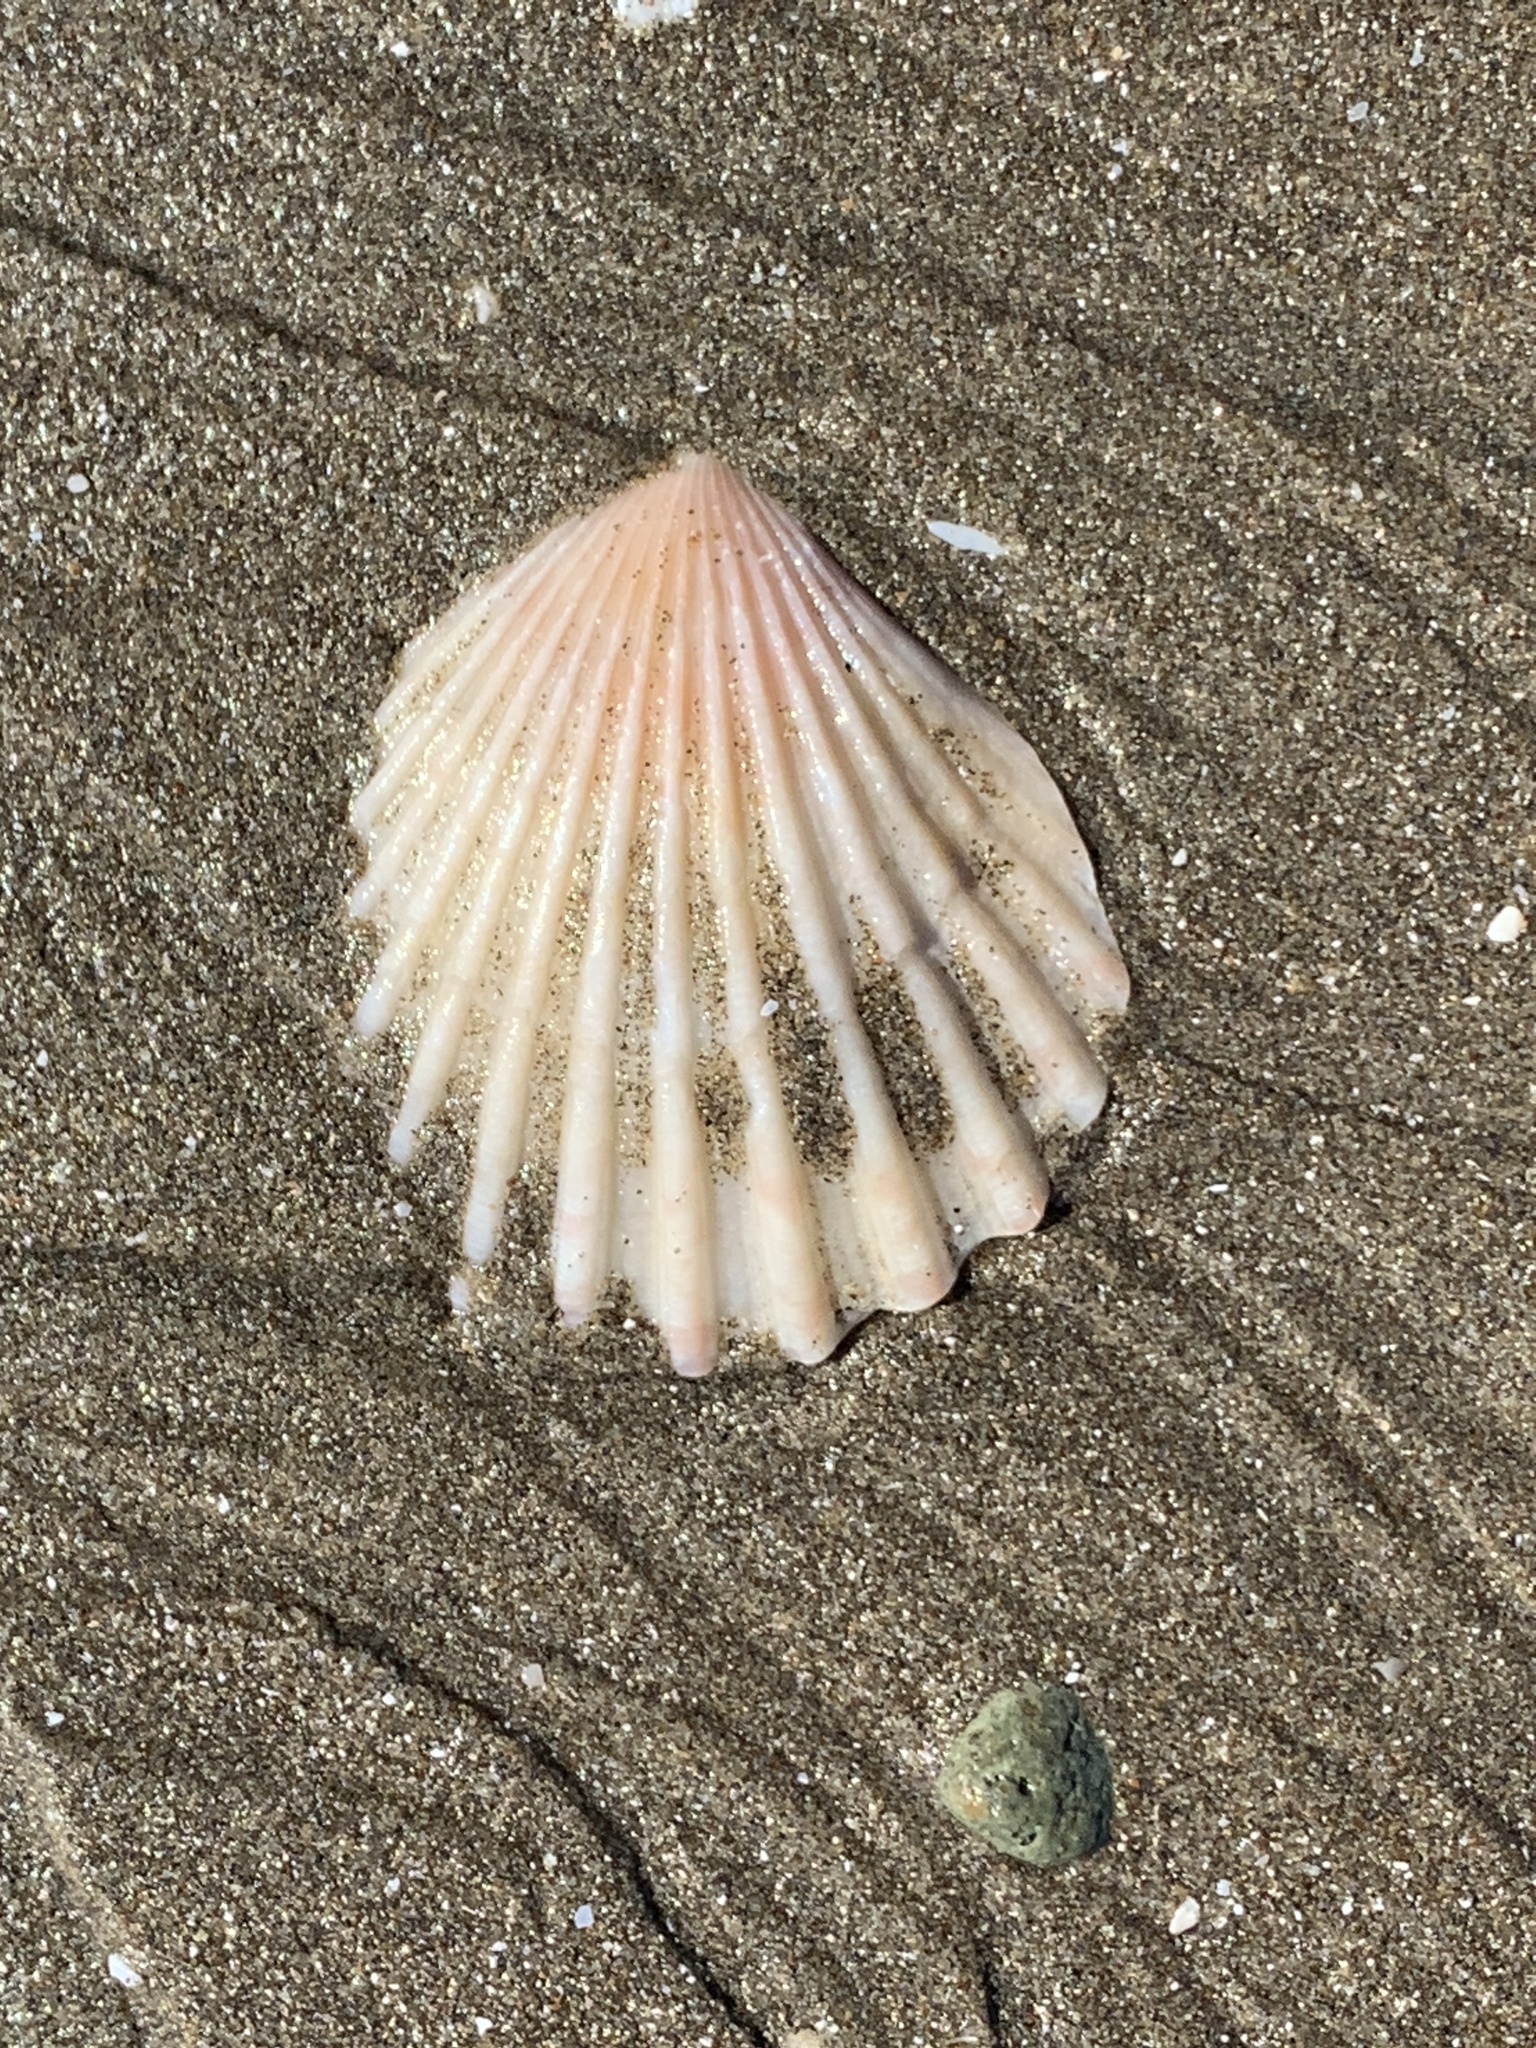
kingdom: Animalia
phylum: Mollusca
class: Bivalvia
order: Pectinida
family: Pectinidae
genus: Aequipecten
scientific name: Aequipecten tehuelchus
